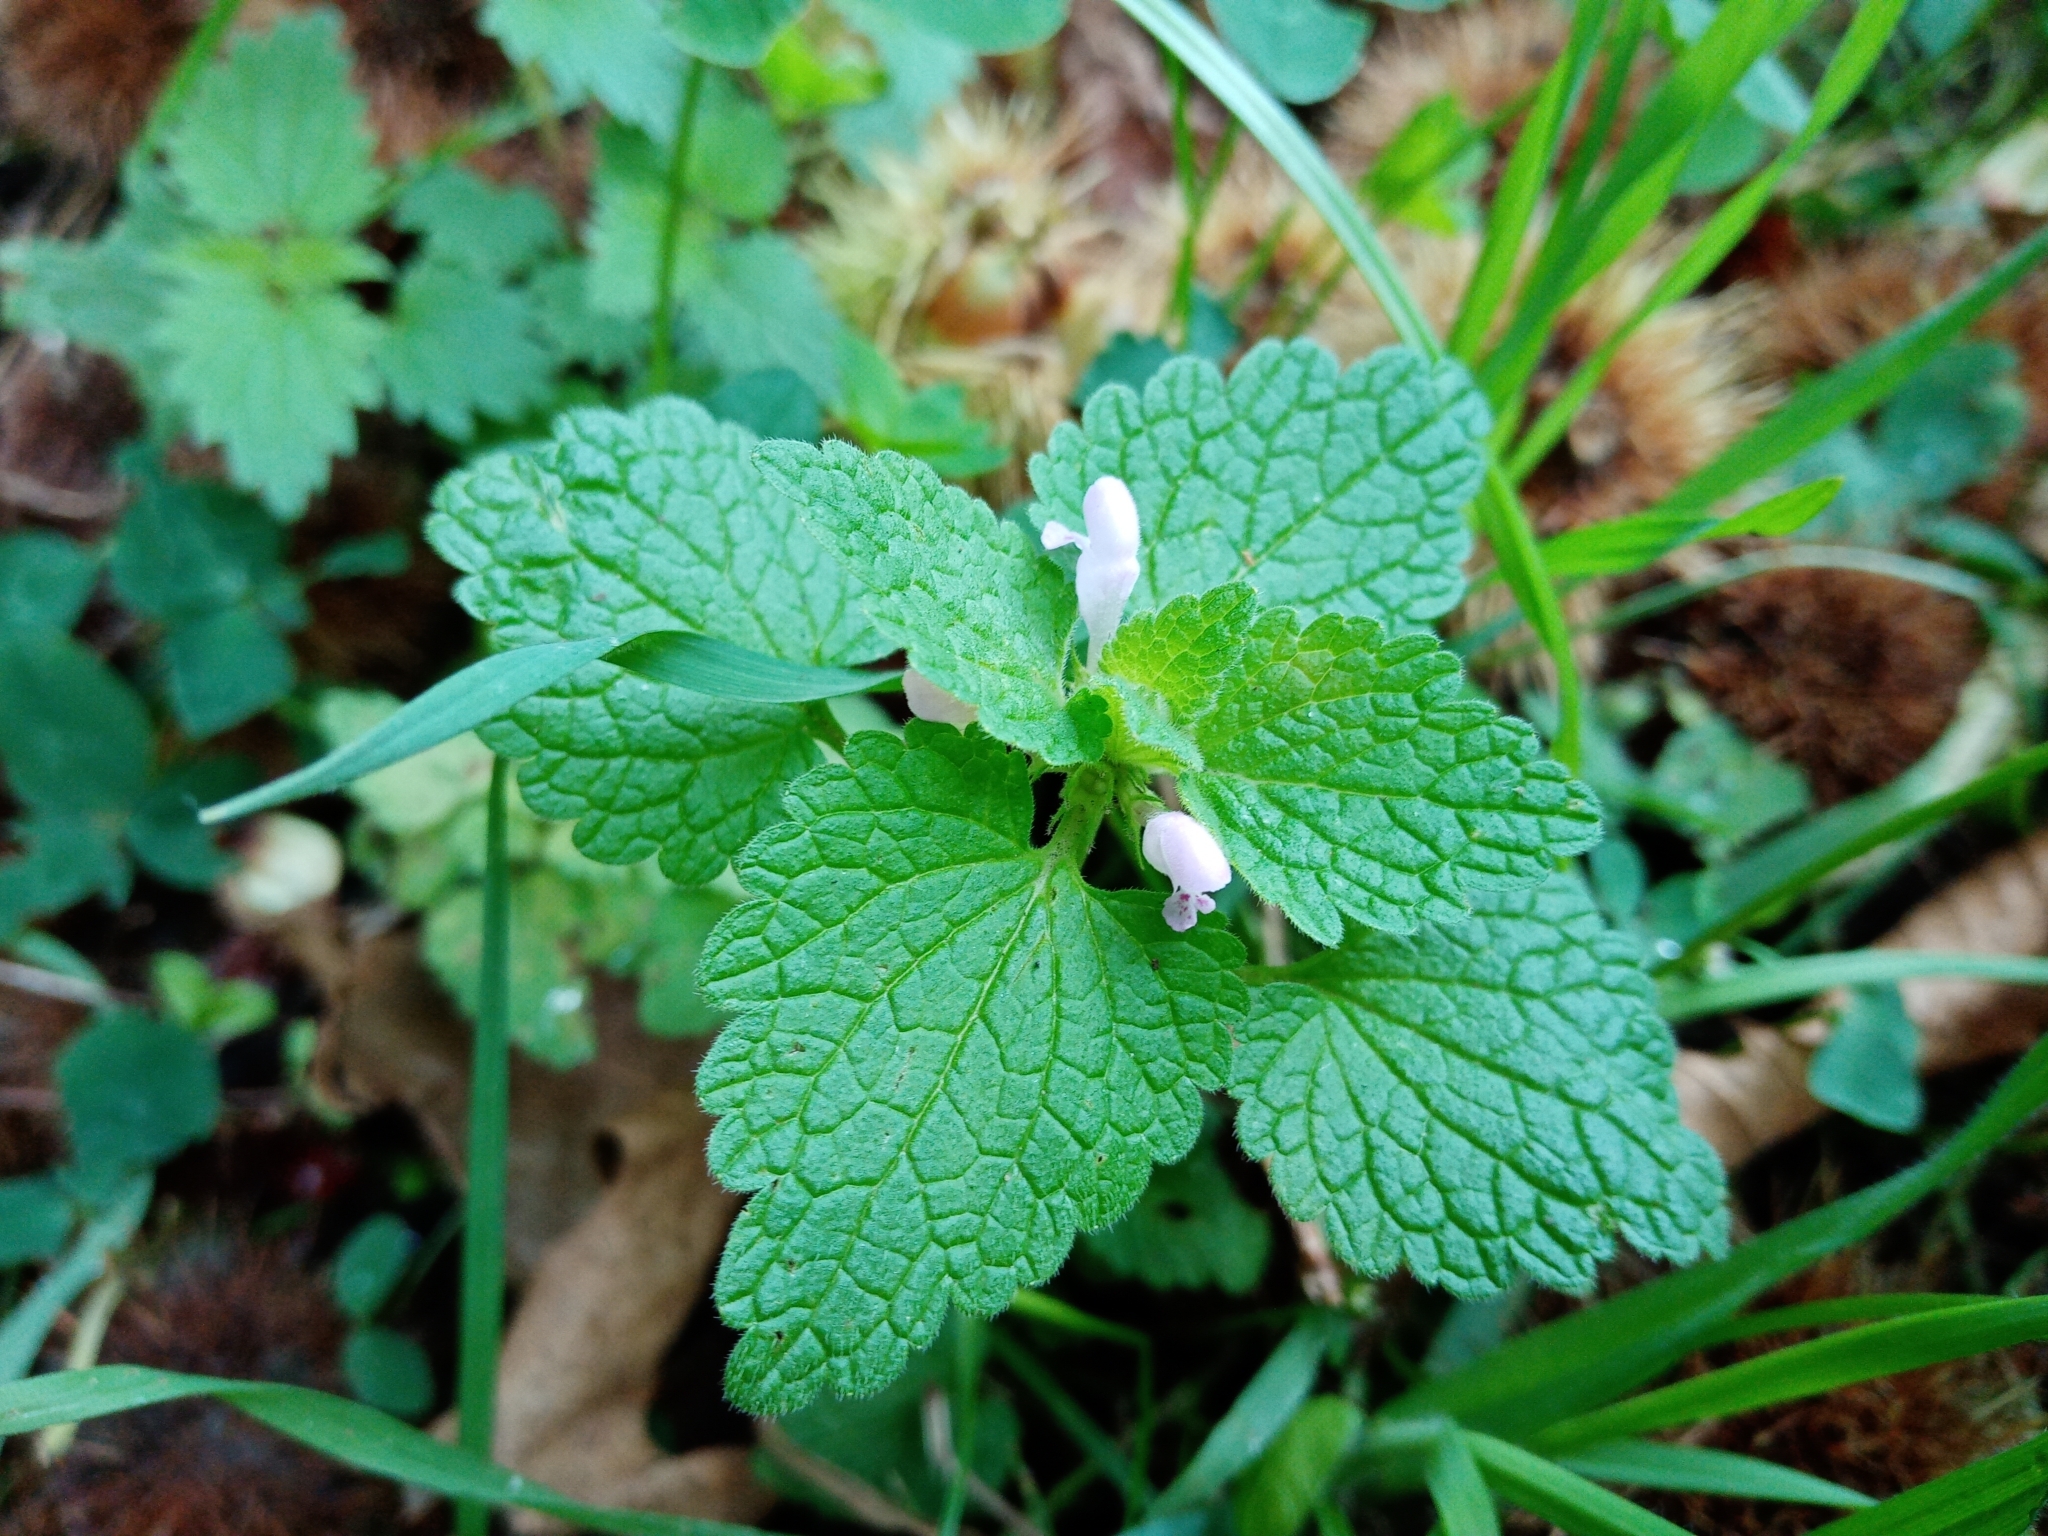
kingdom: Plantae
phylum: Tracheophyta
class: Magnoliopsida
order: Lamiales
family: Lamiaceae
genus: Lamium
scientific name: Lamium purpureum
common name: Red dead-nettle
